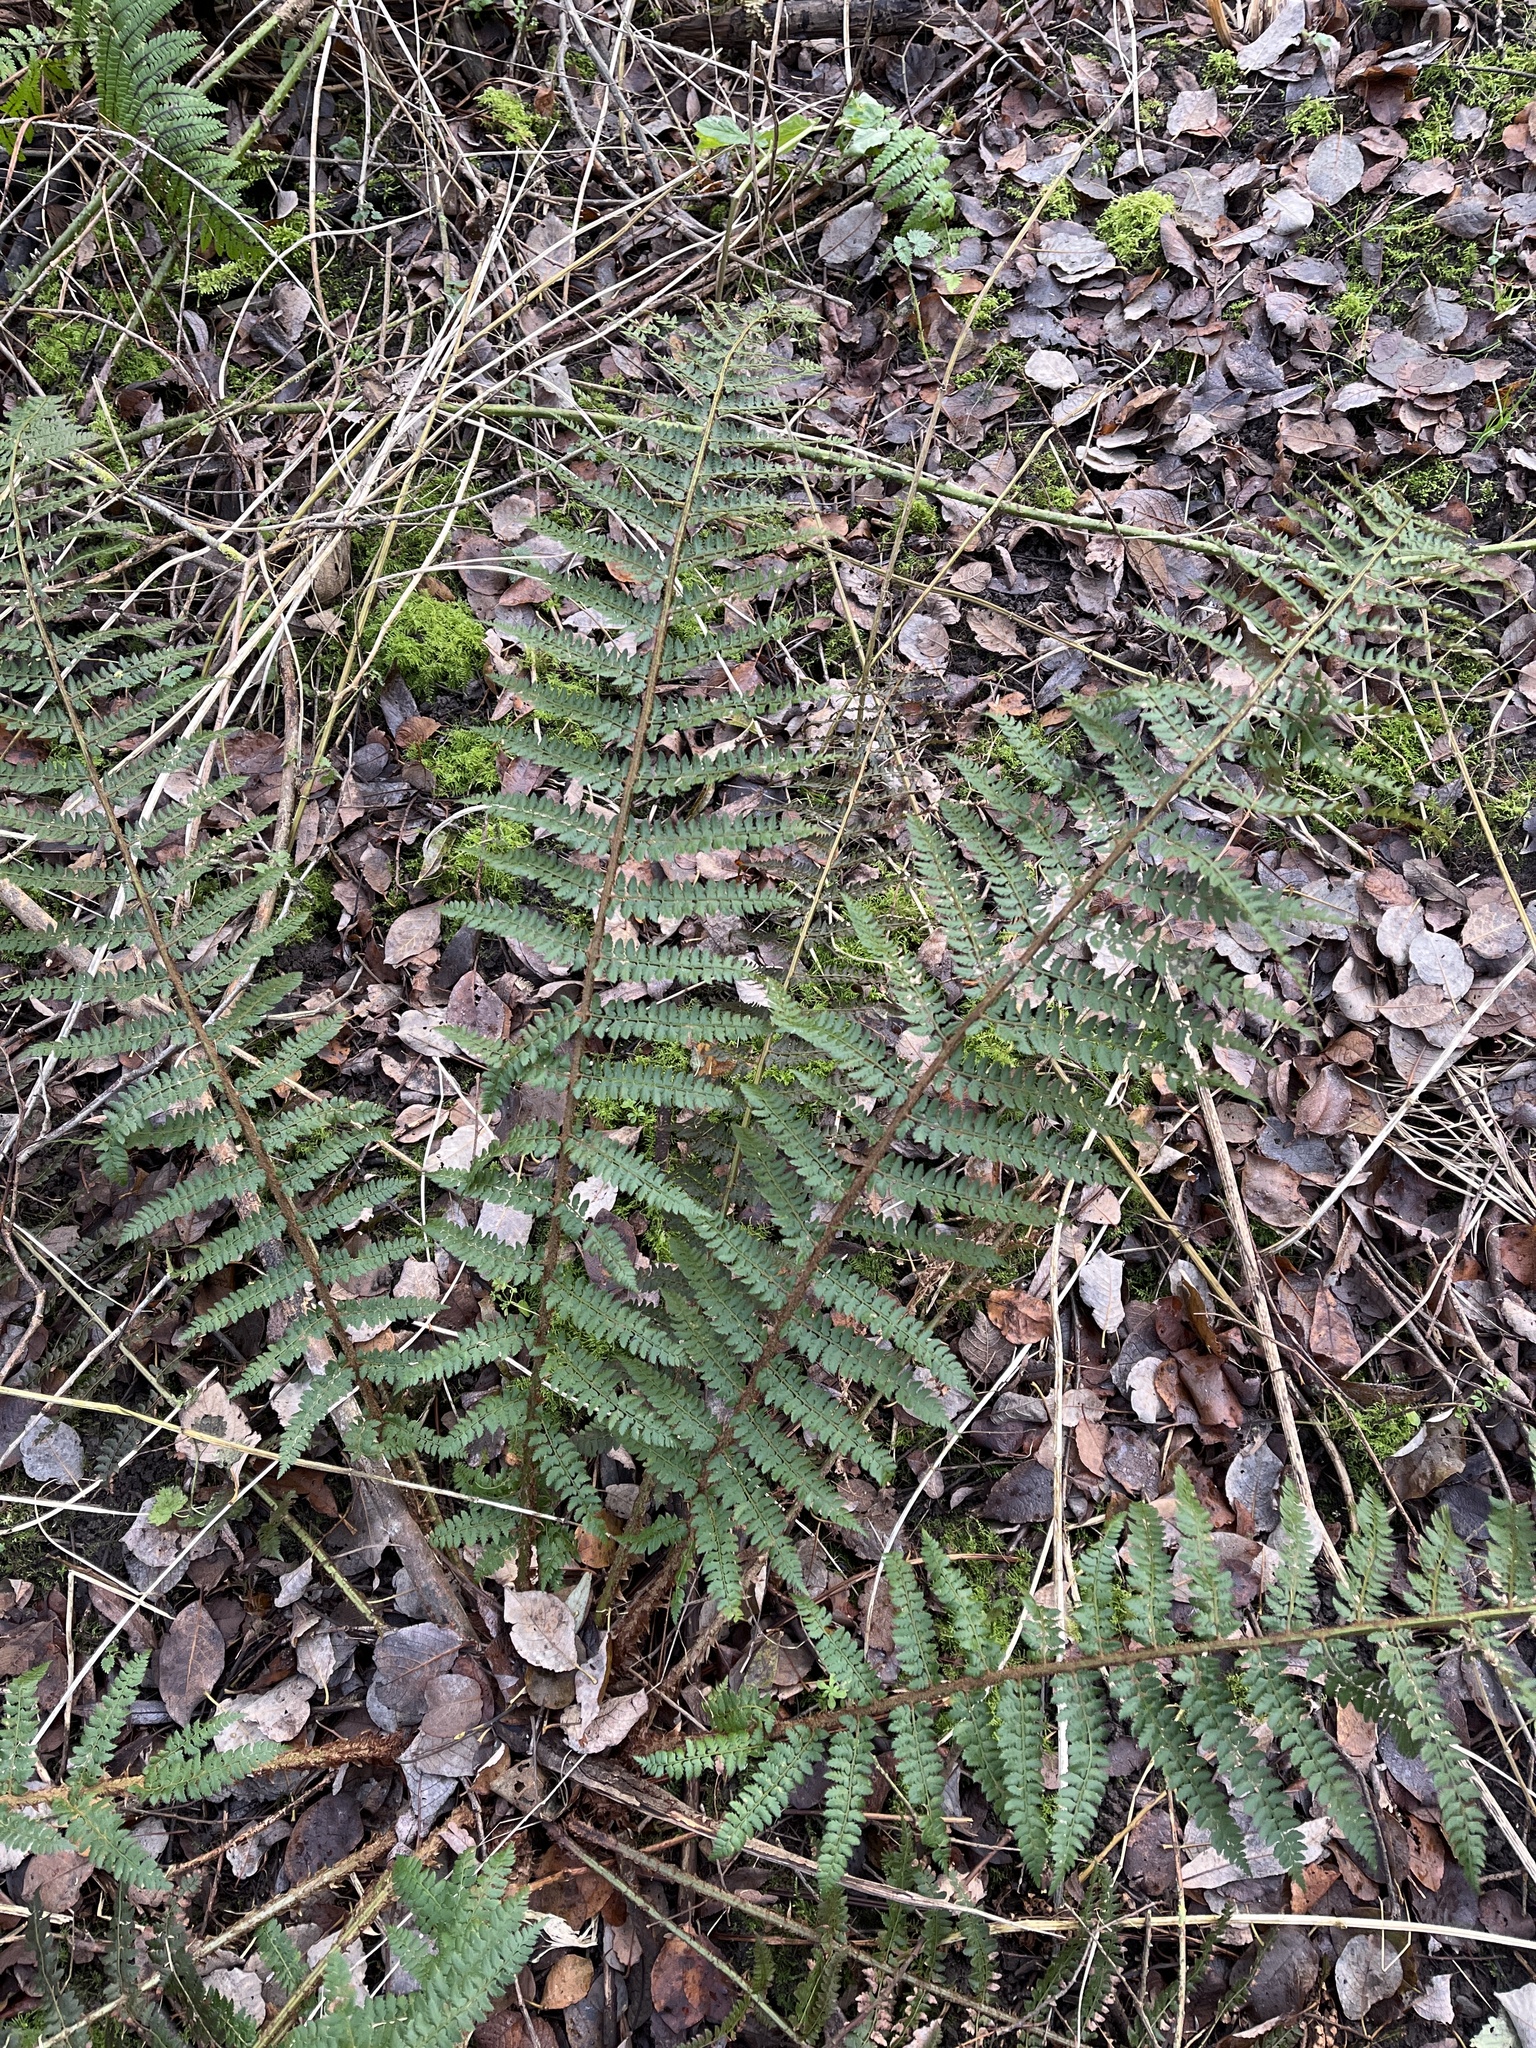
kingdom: Plantae
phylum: Tracheophyta
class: Polypodiopsida
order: Polypodiales
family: Dryopteridaceae
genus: Polystichum
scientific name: Polystichum setiferum
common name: Soft shield-fern
